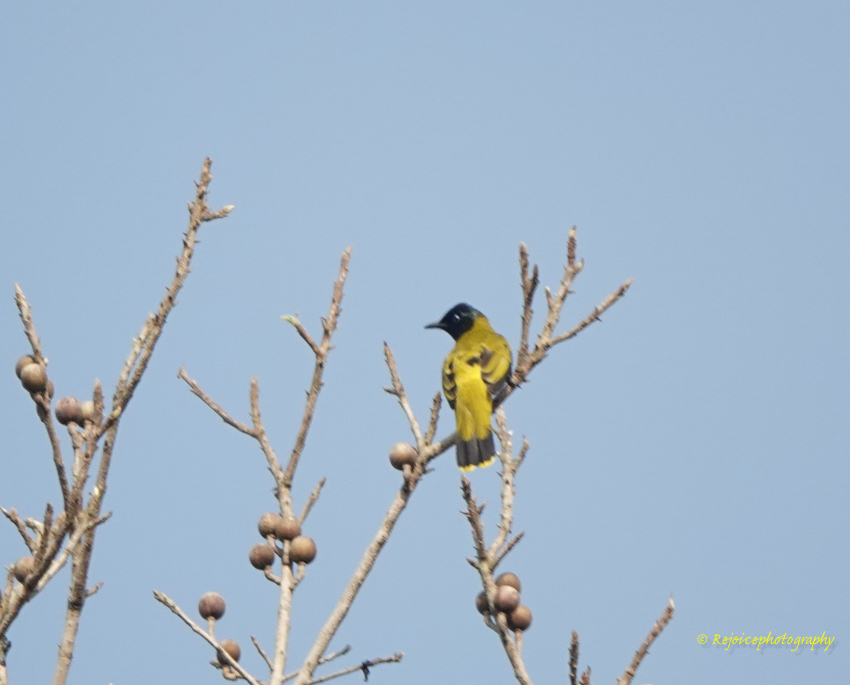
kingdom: Animalia
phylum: Chordata
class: Aves
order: Passeriformes
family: Pycnonotidae
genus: Microtarsus
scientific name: Microtarsus
